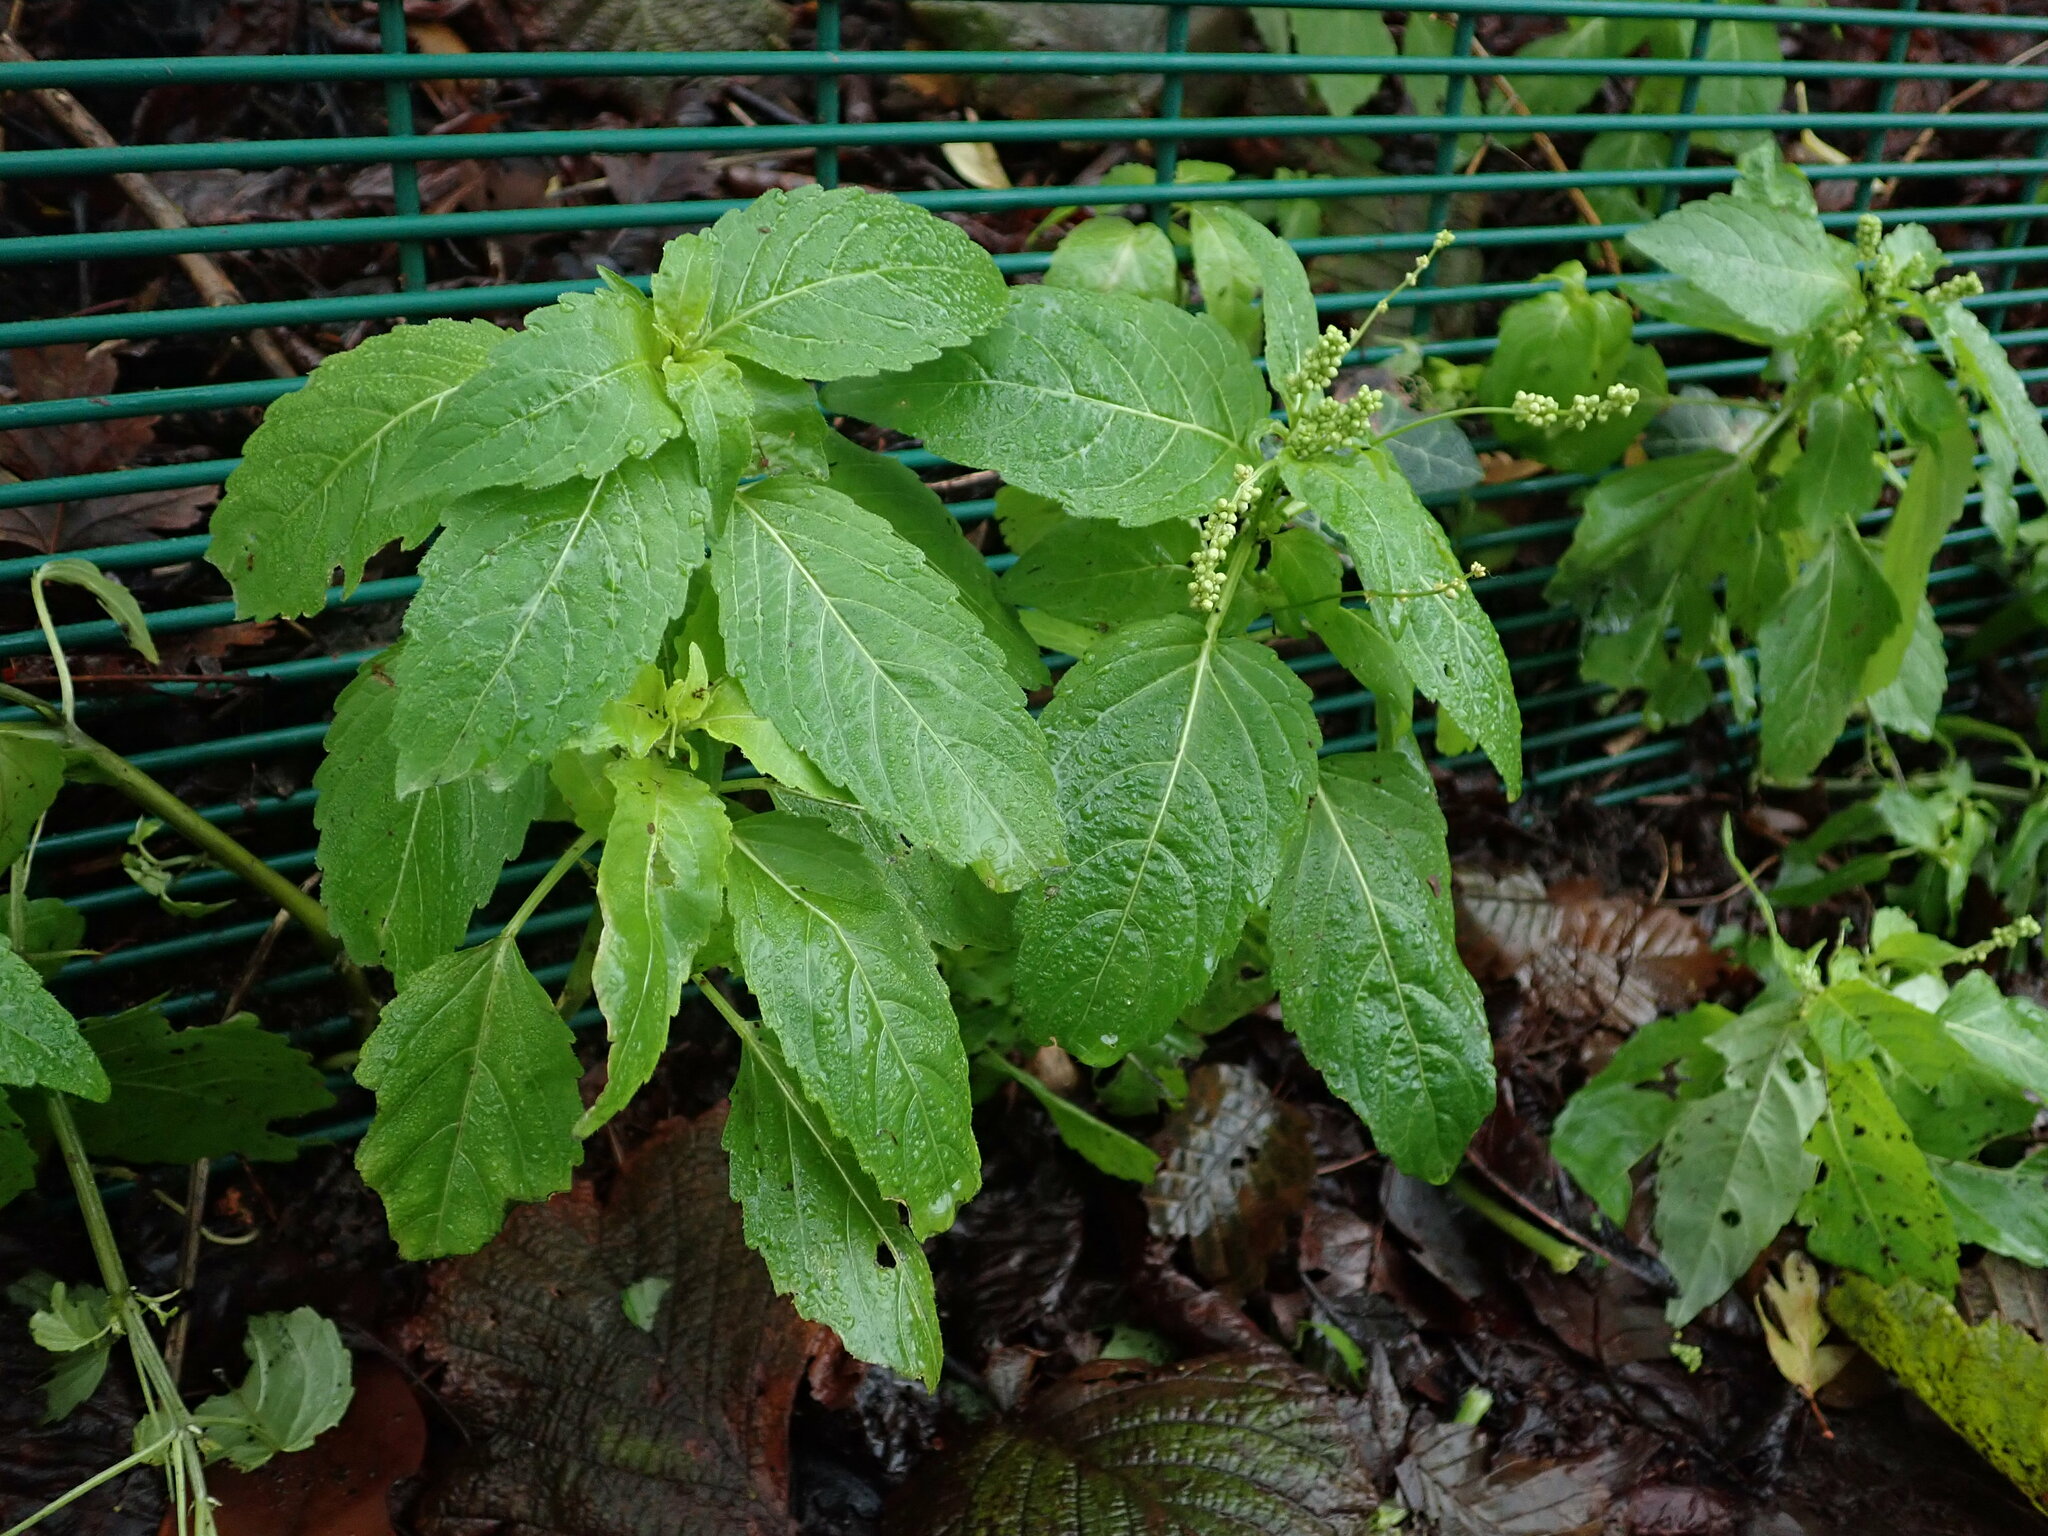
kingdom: Plantae
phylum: Tracheophyta
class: Magnoliopsida
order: Malpighiales
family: Euphorbiaceae
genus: Mercurialis
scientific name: Mercurialis annua
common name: Annual mercury
